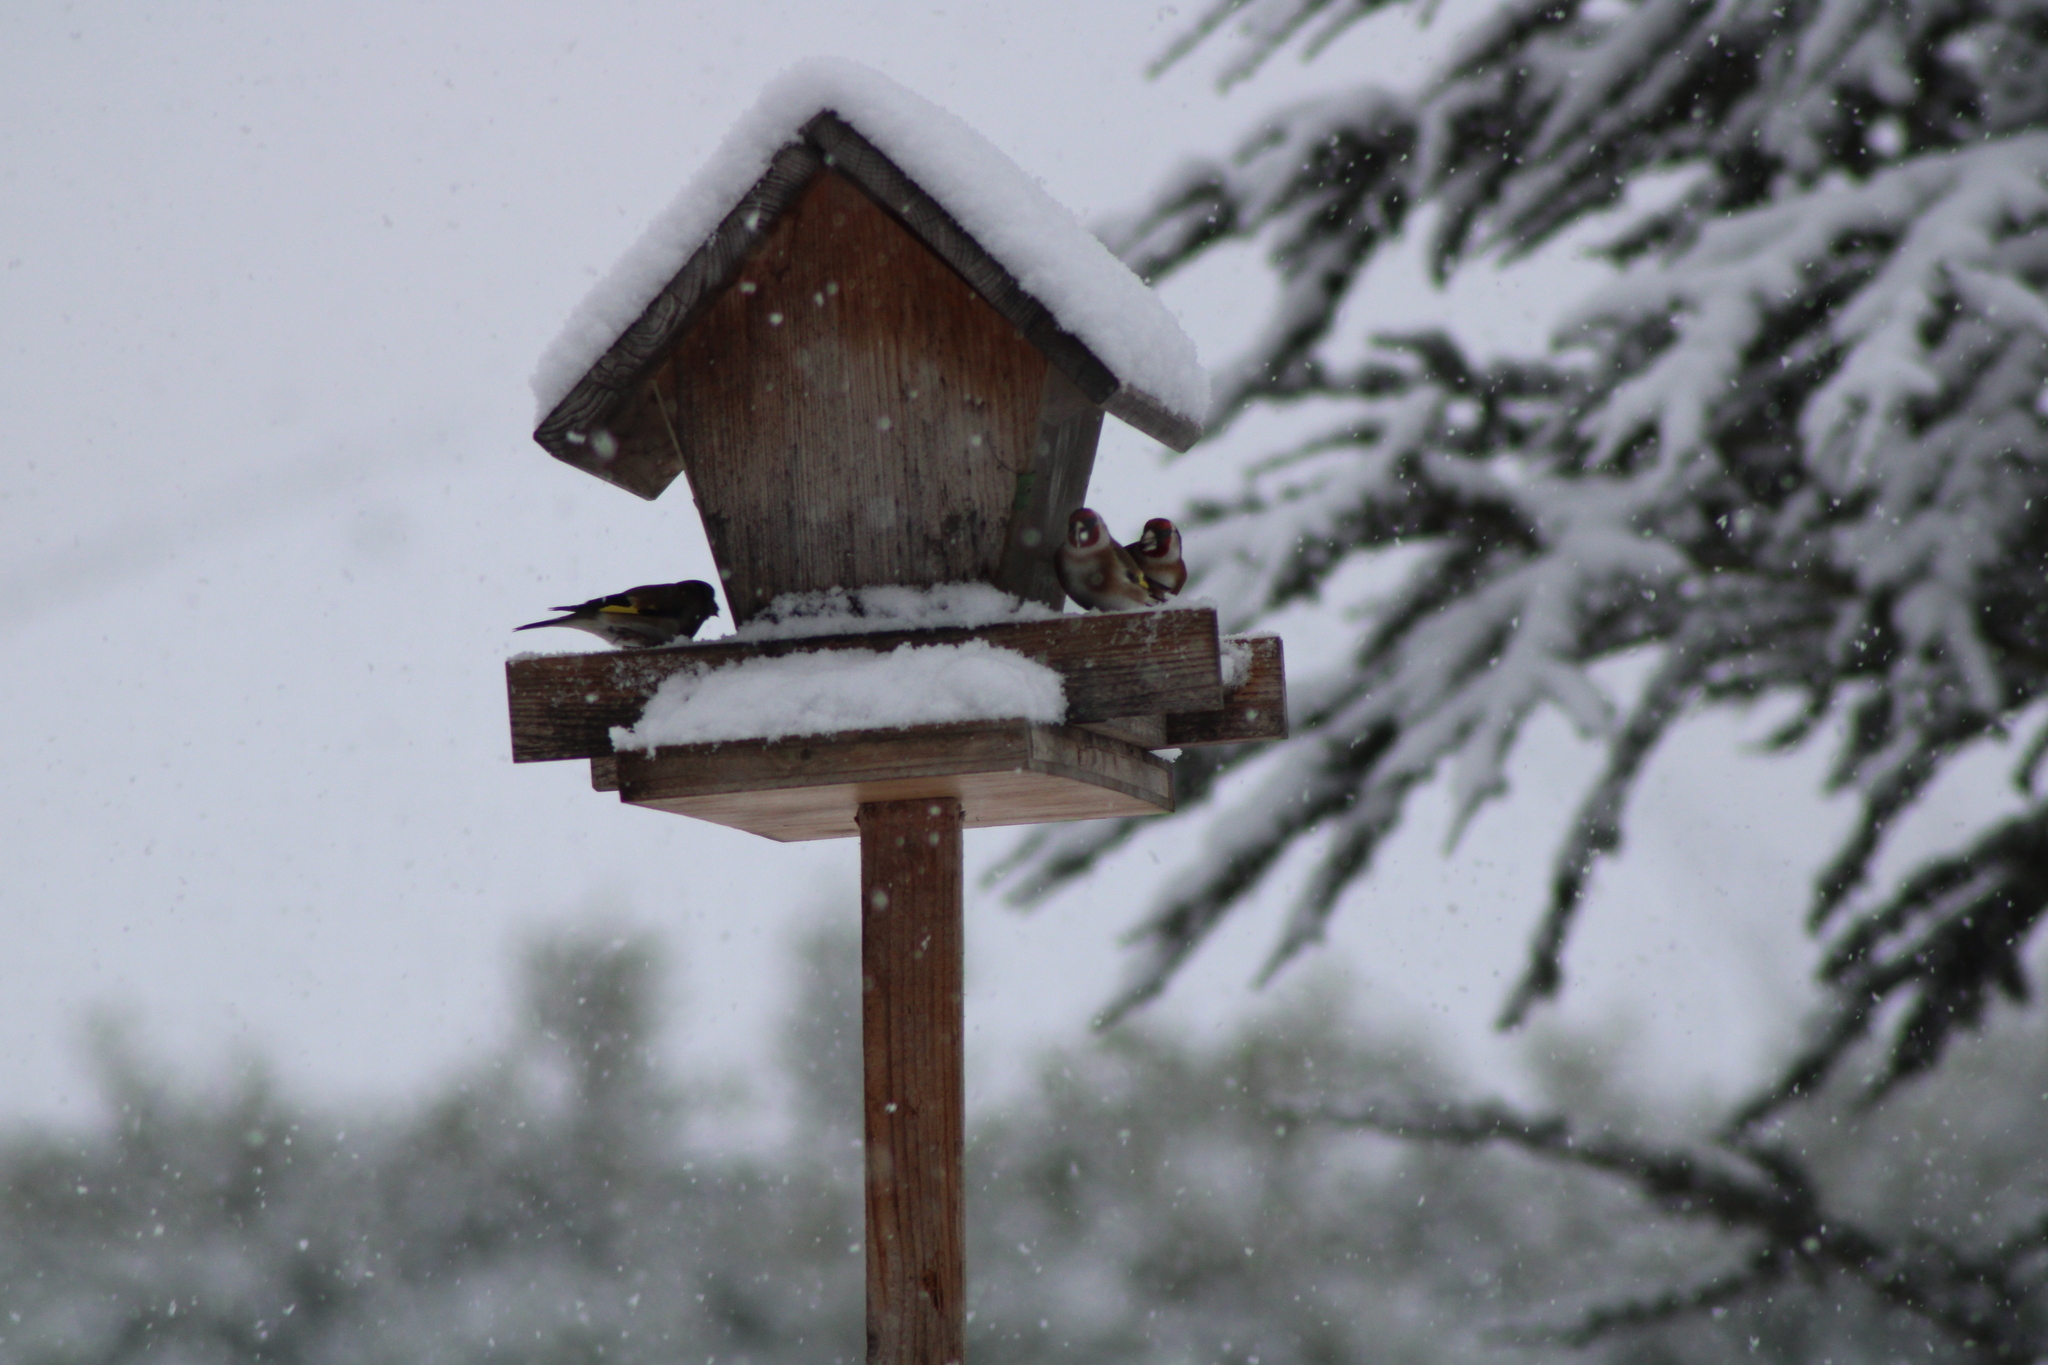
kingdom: Animalia
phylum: Chordata
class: Aves
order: Passeriformes
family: Fringillidae
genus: Carduelis
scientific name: Carduelis carduelis
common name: European goldfinch
